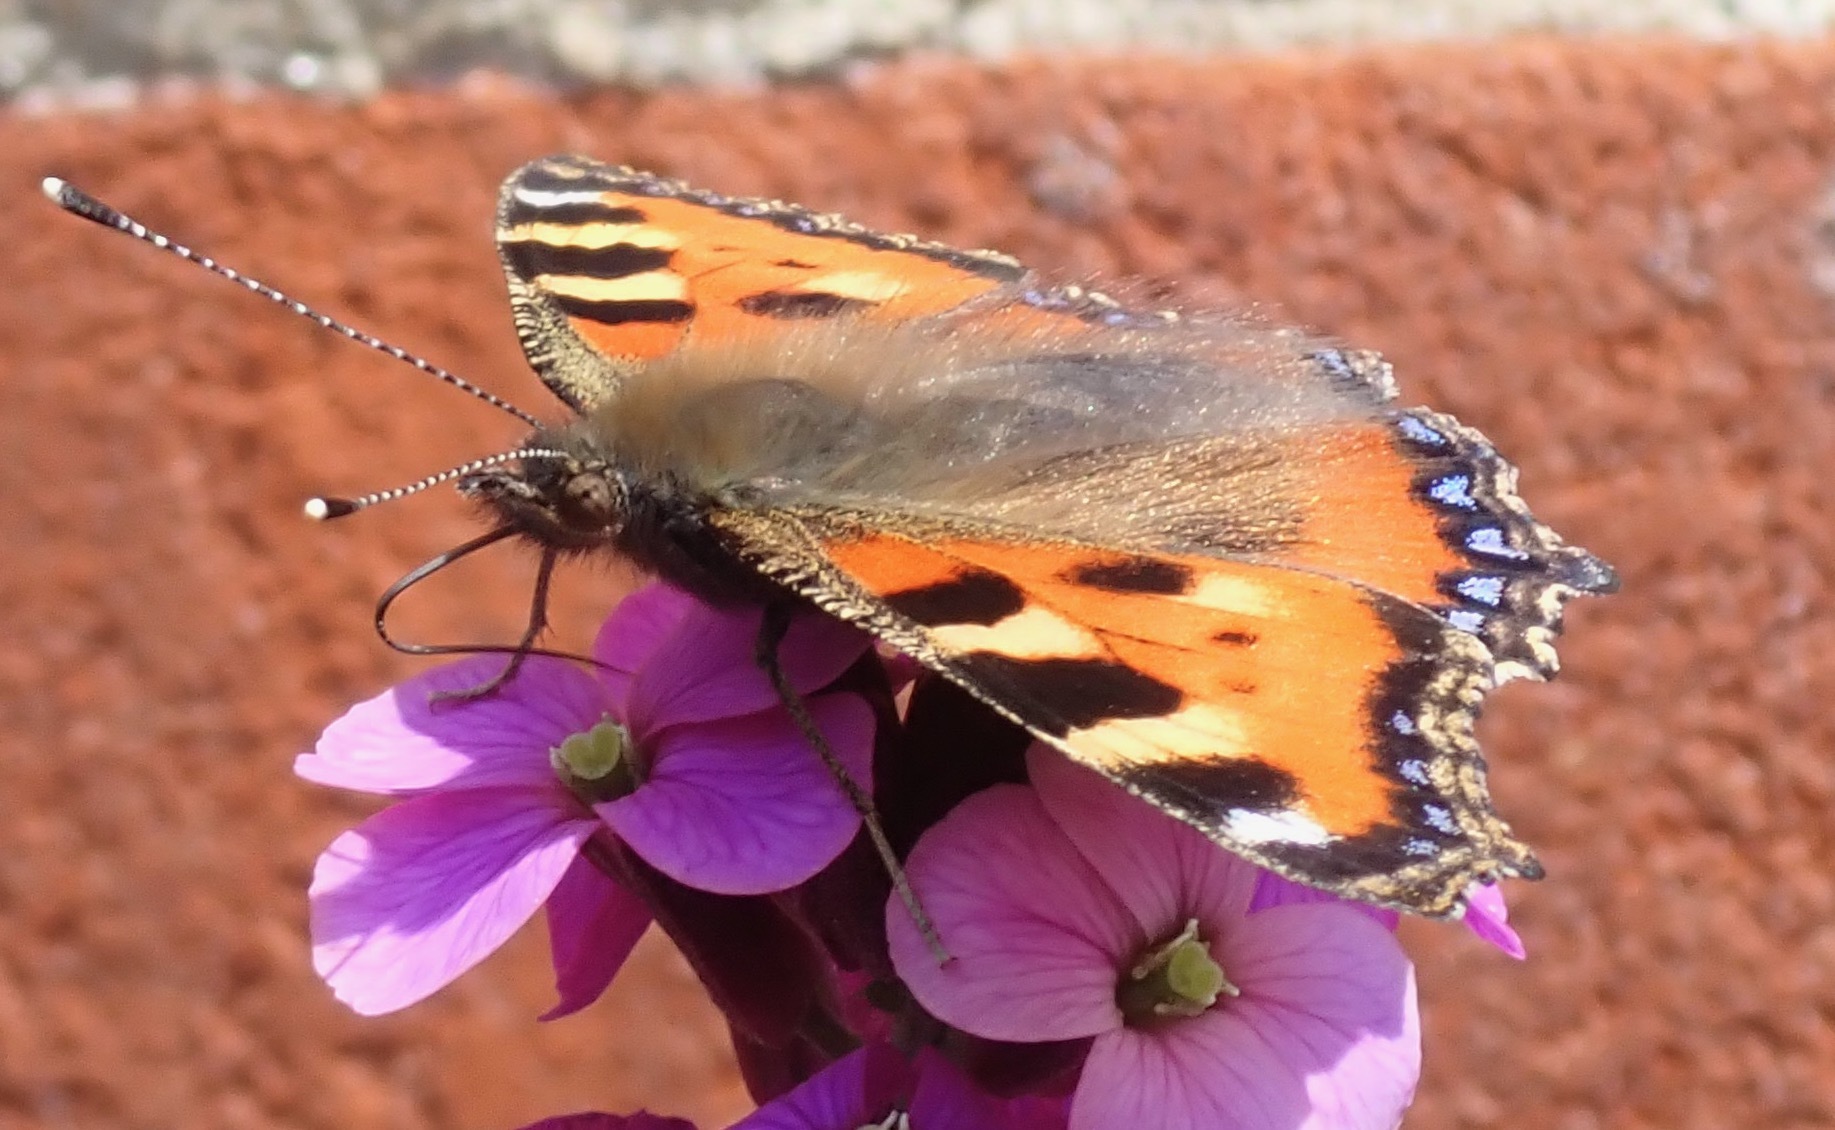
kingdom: Animalia
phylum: Arthropoda
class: Insecta
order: Lepidoptera
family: Nymphalidae
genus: Aglais
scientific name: Aglais urticae
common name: Small tortoiseshell
